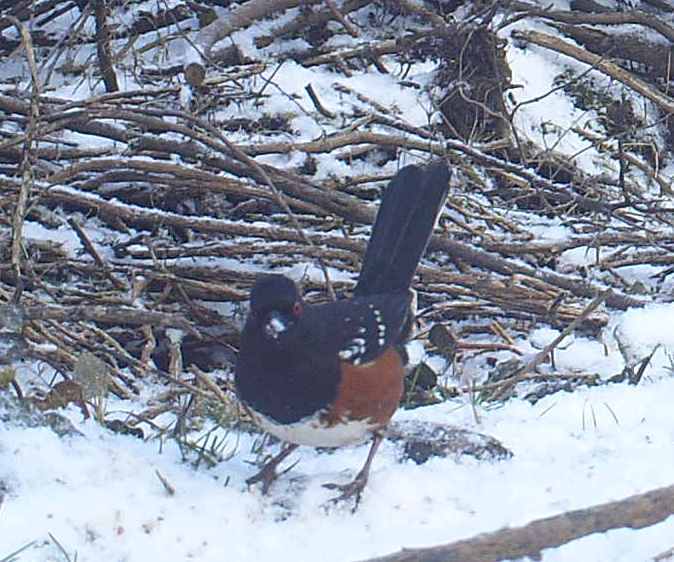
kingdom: Animalia
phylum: Chordata
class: Aves
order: Passeriformes
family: Passerellidae
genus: Pipilo
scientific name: Pipilo maculatus
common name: Spotted towhee
